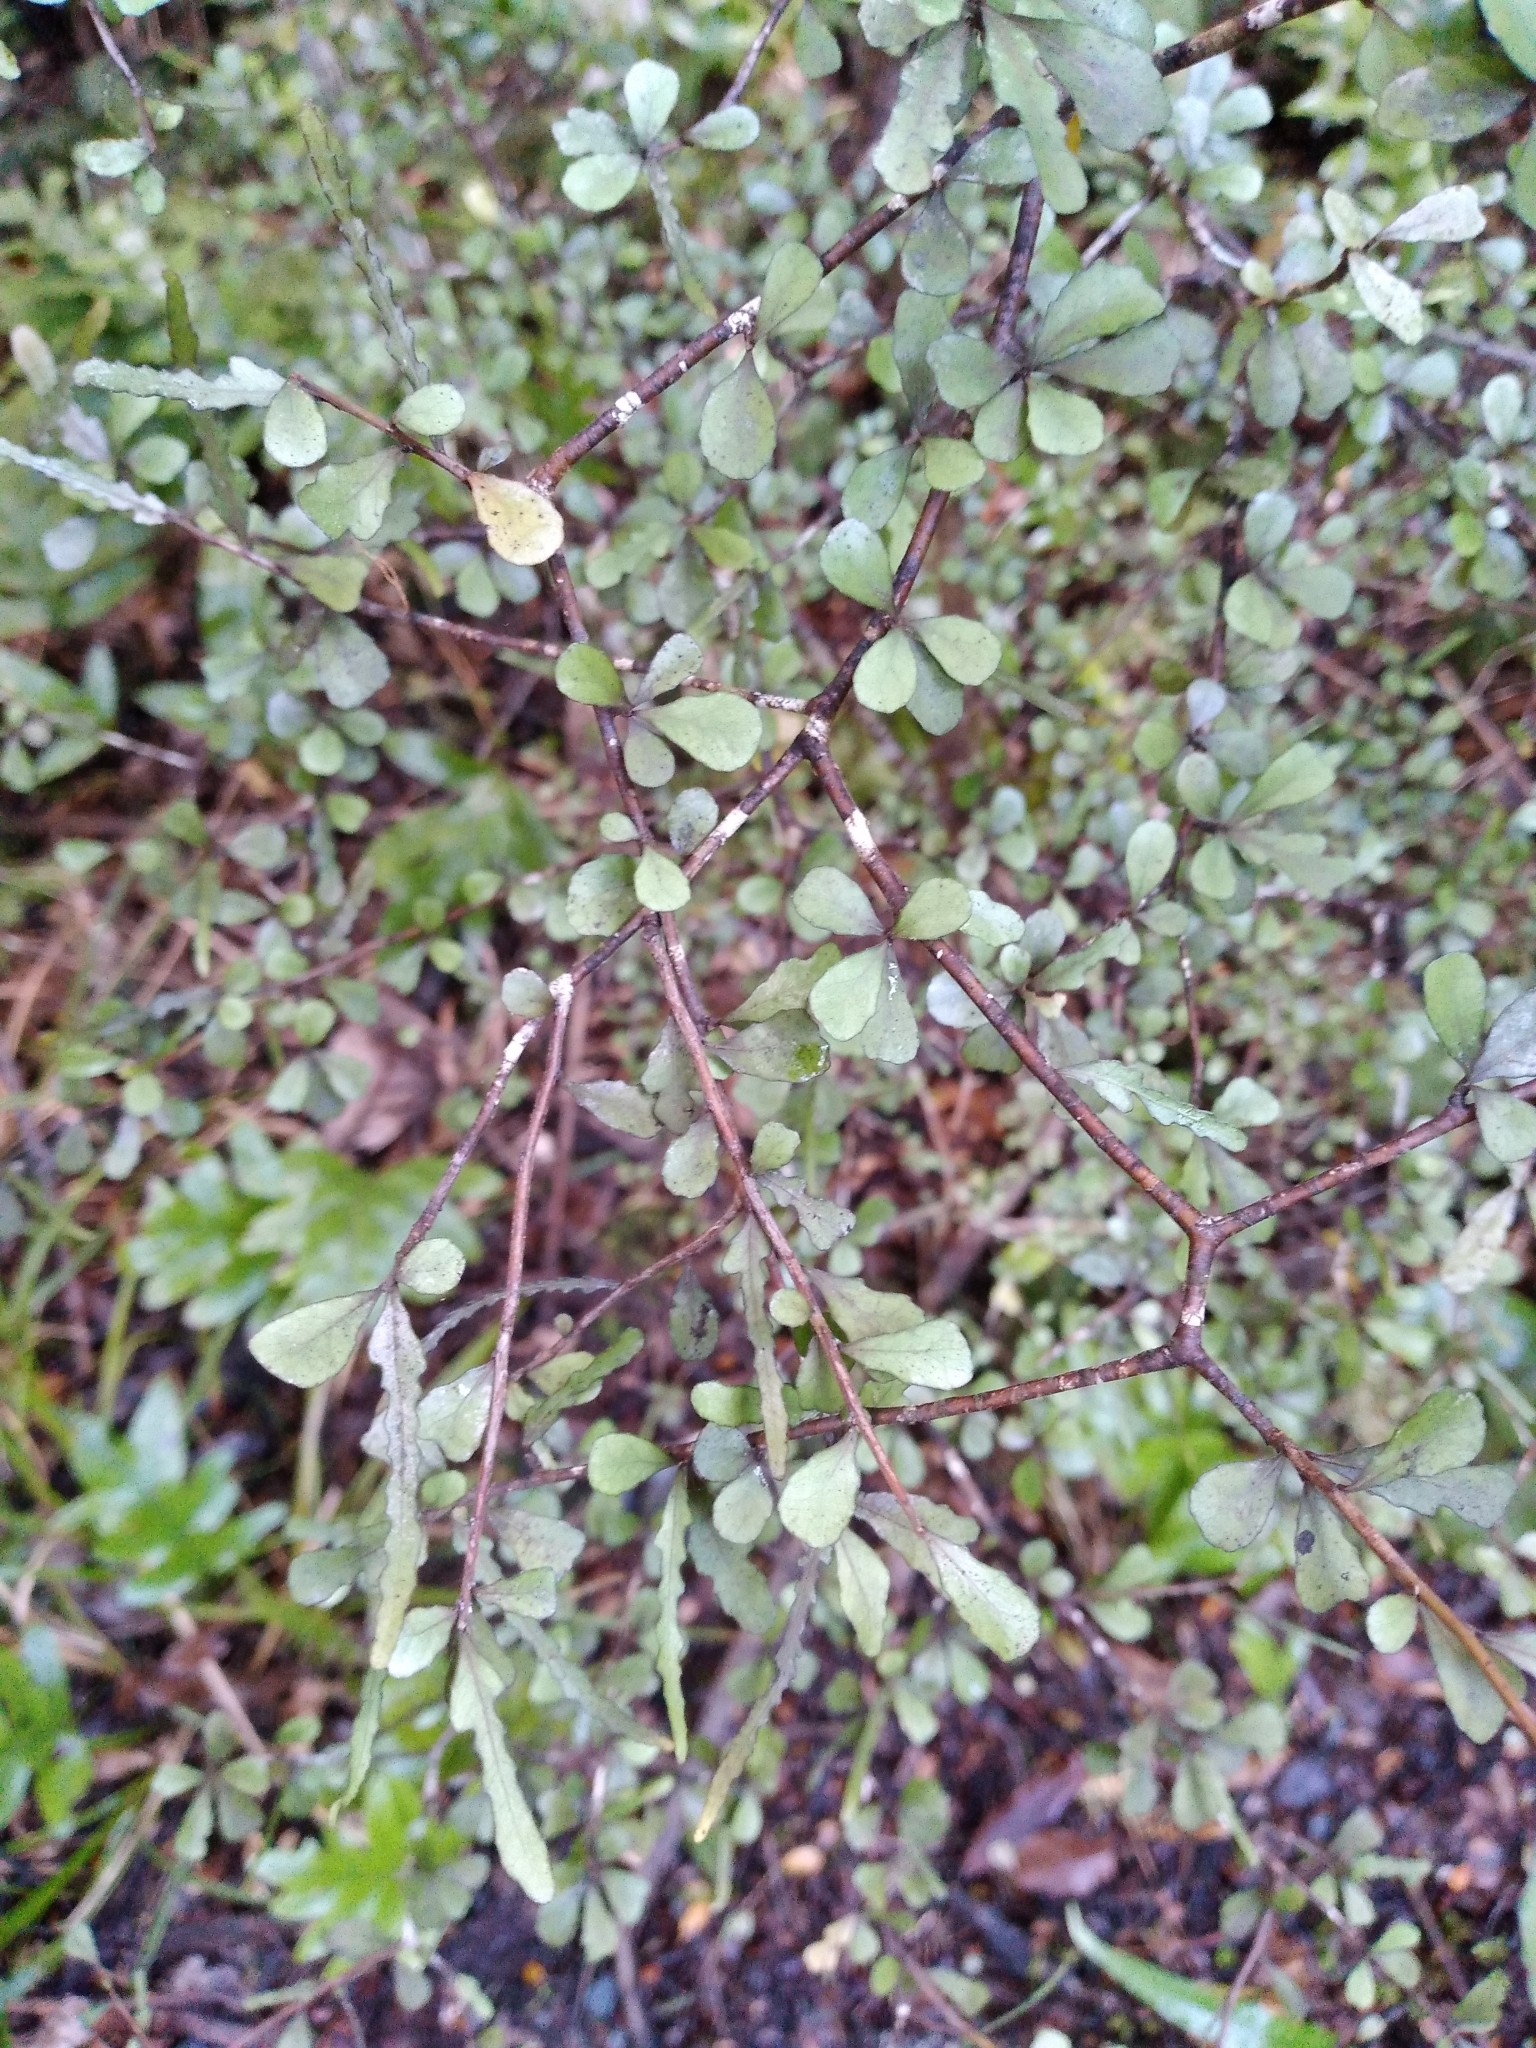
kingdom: Plantae
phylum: Tracheophyta
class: Magnoliopsida
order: Oxalidales
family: Elaeocarpaceae
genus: Elaeocarpus
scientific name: Elaeocarpus hookerianus
